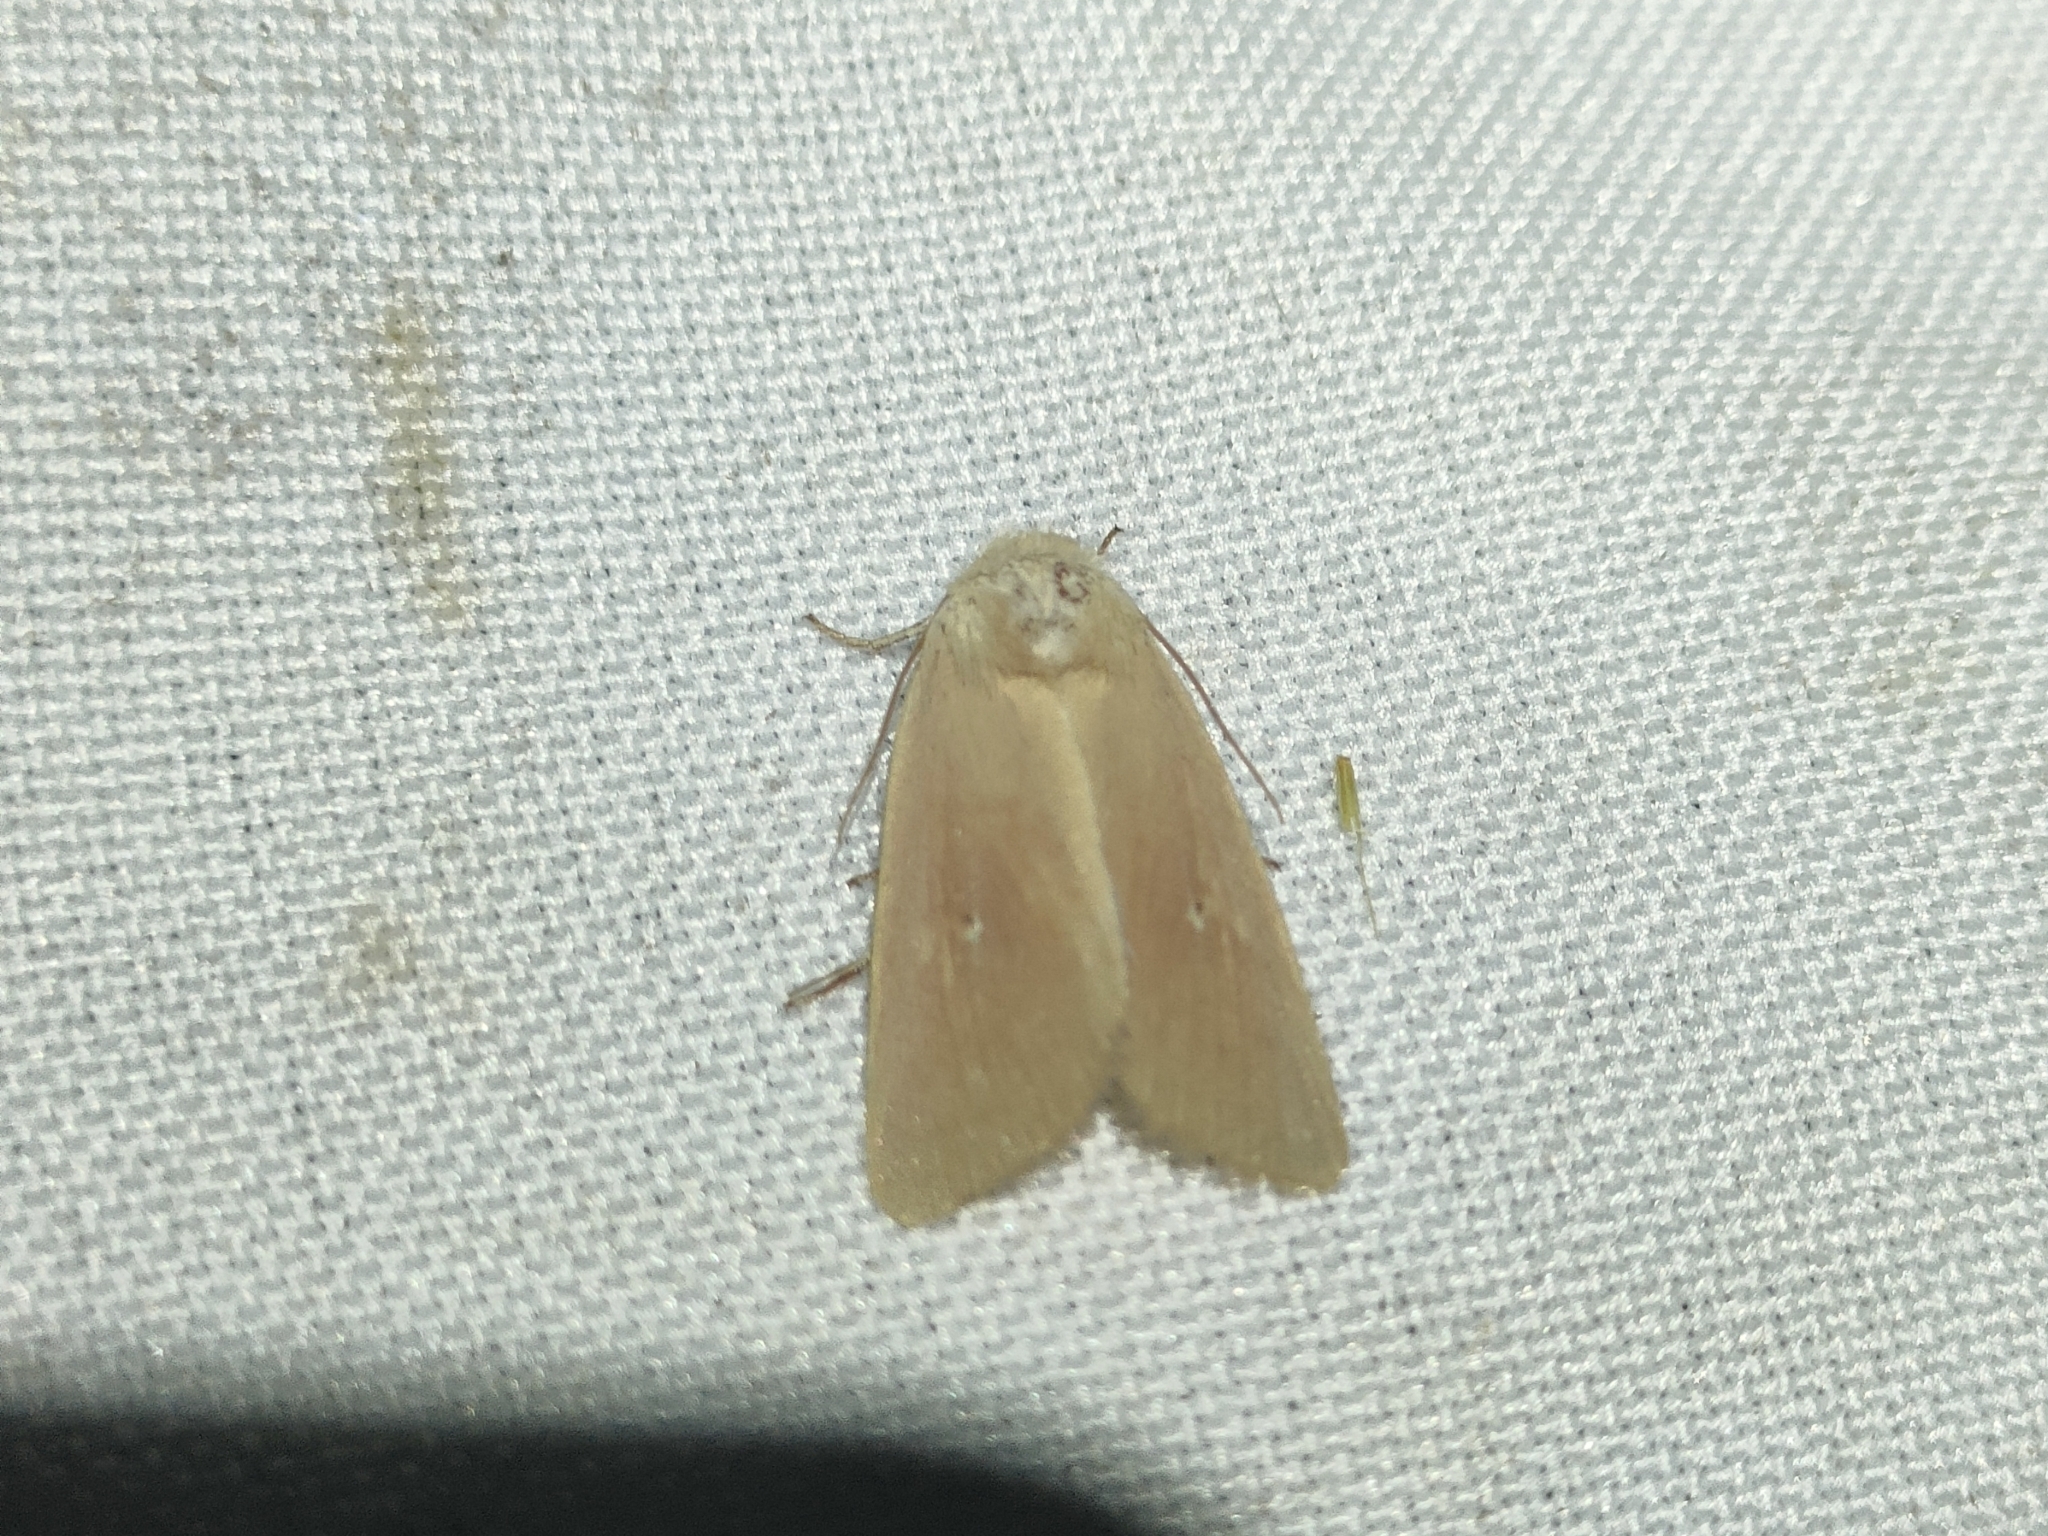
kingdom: Animalia
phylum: Arthropoda
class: Insecta
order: Lepidoptera
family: Noctuidae
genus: Mythimna
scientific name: Mythimna sicula
